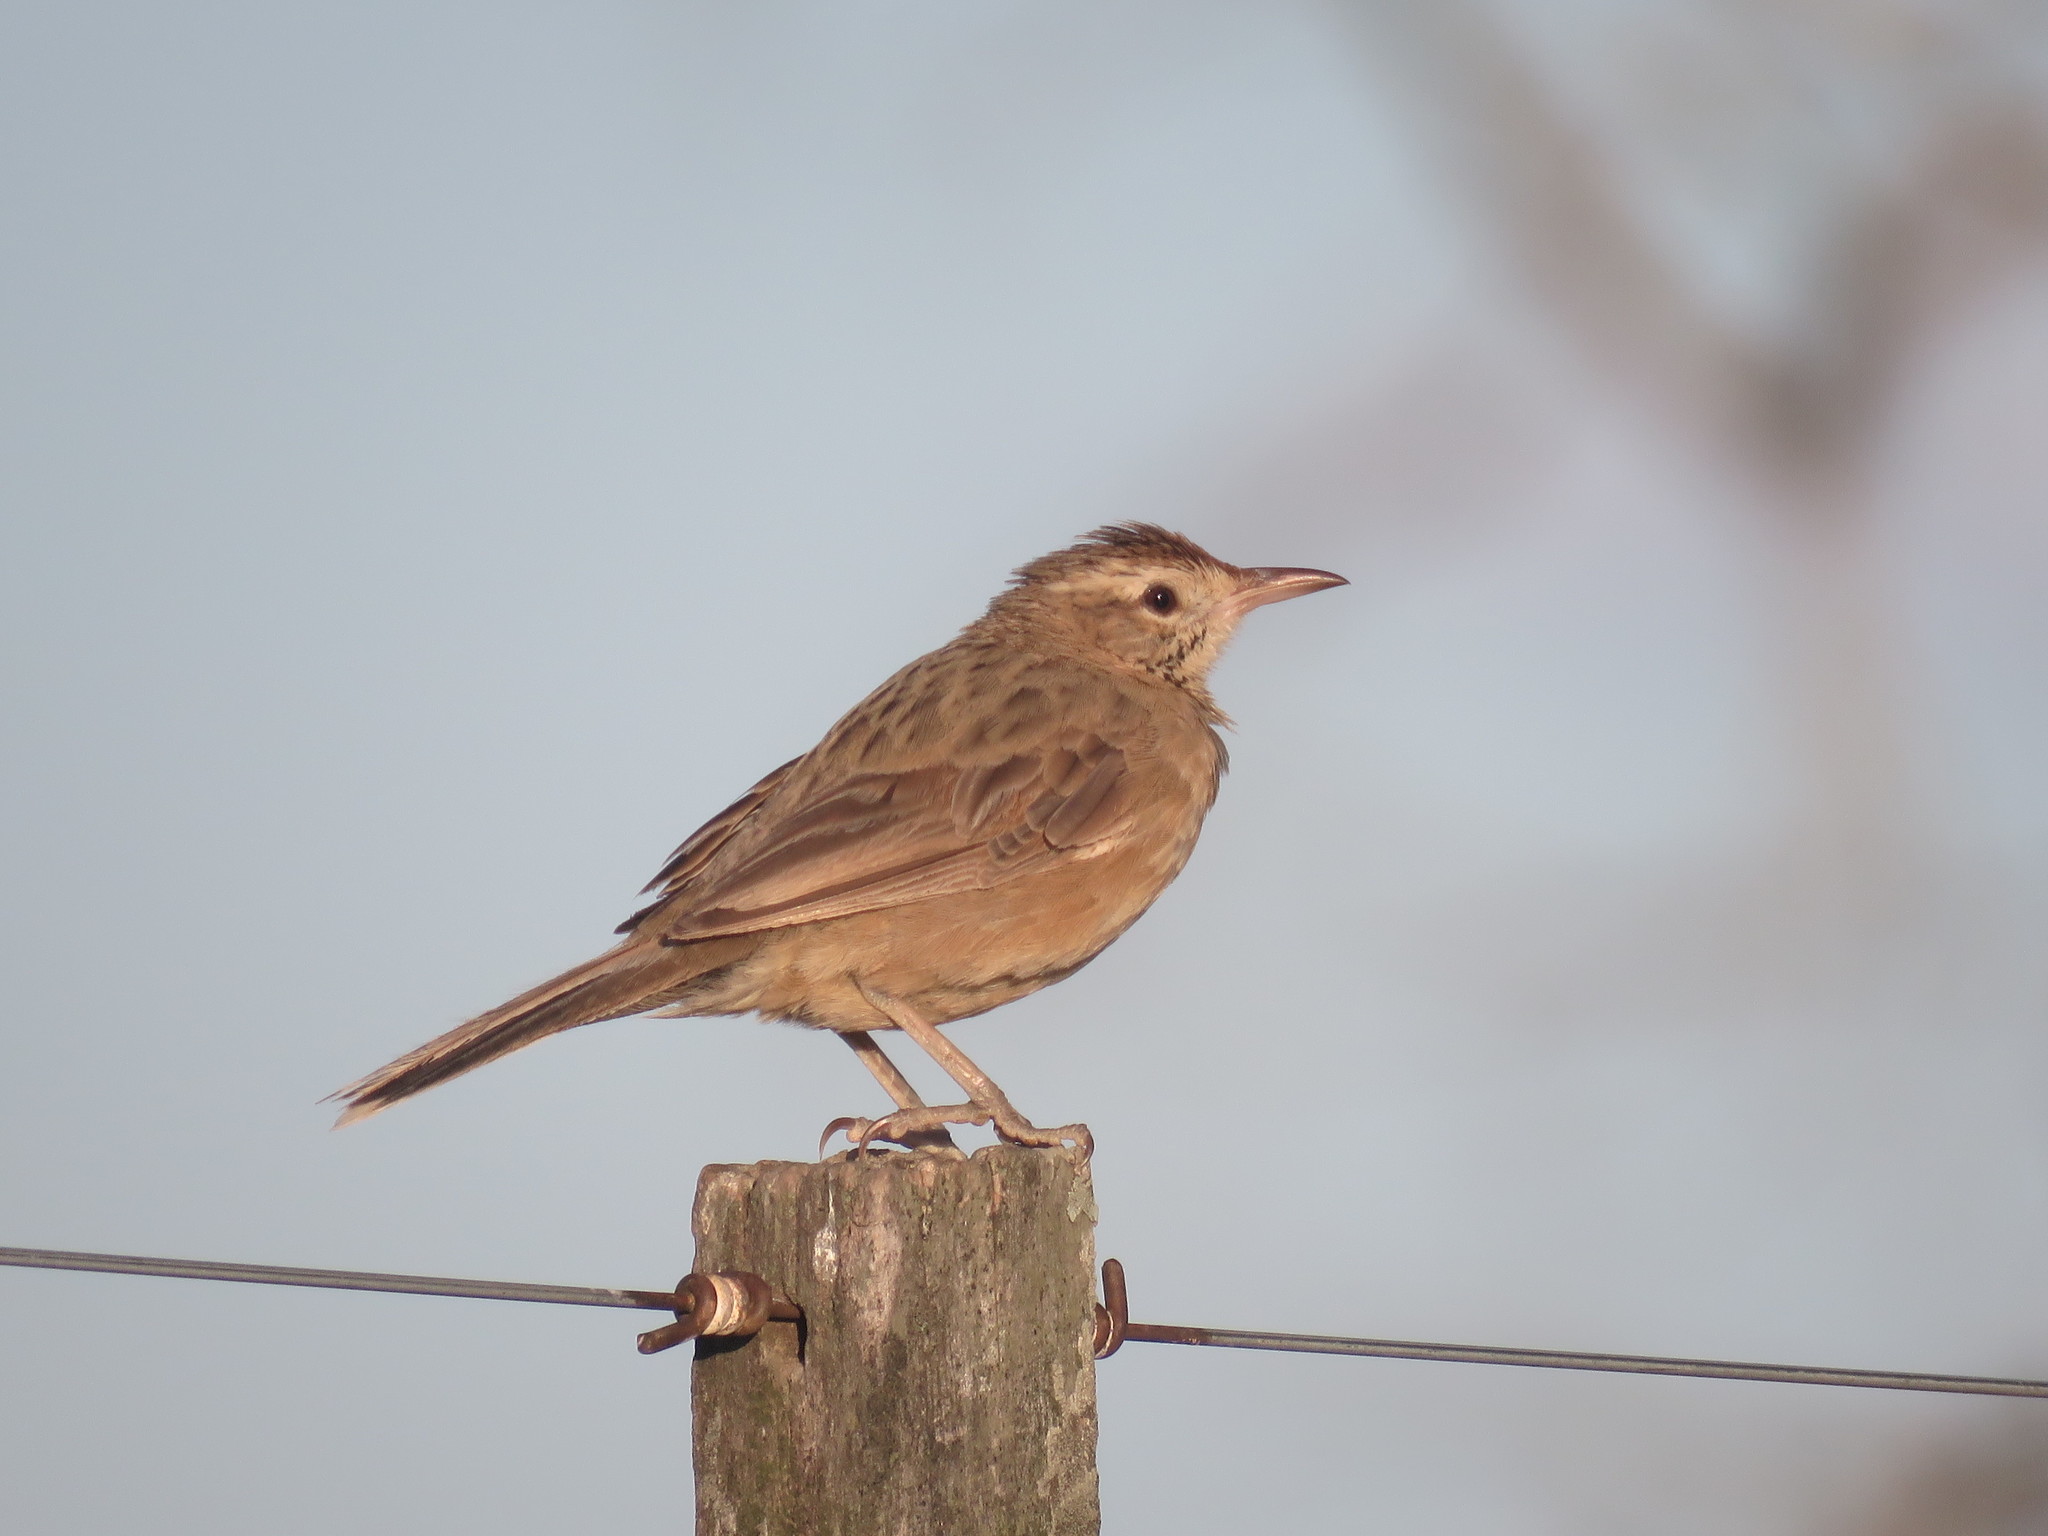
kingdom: Animalia
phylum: Chordata
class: Aves
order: Passeriformes
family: Furnariidae
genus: Anumbius
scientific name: Anumbius annumbi
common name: Firewood-gatherer
